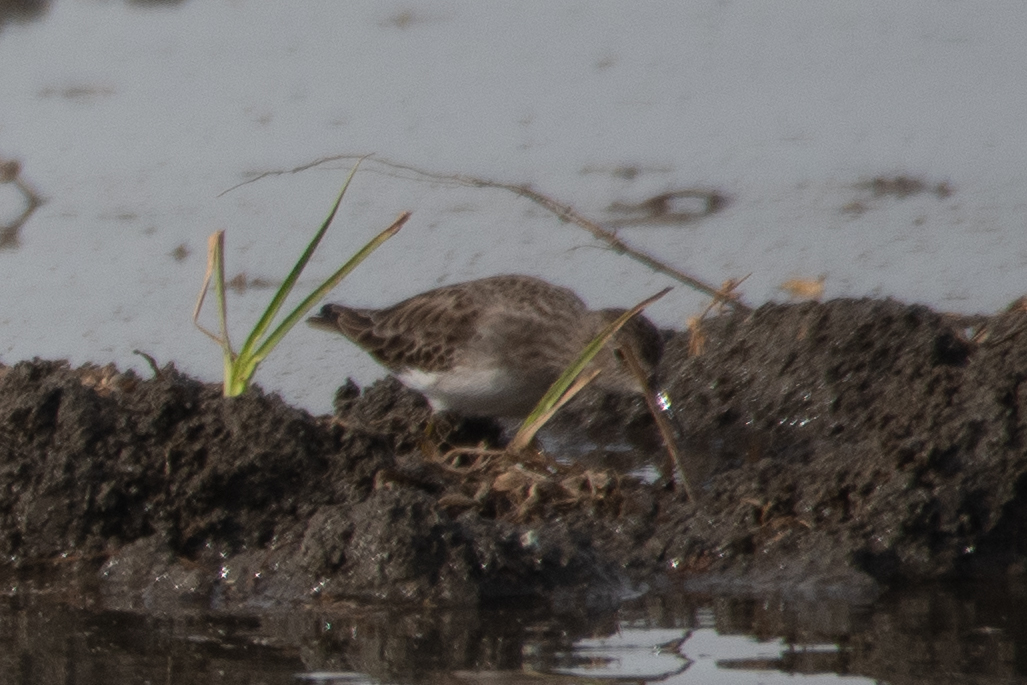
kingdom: Animalia
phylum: Chordata
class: Aves
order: Charadriiformes
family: Scolopacidae
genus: Calidris
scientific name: Calidris minutilla
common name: Least sandpiper
